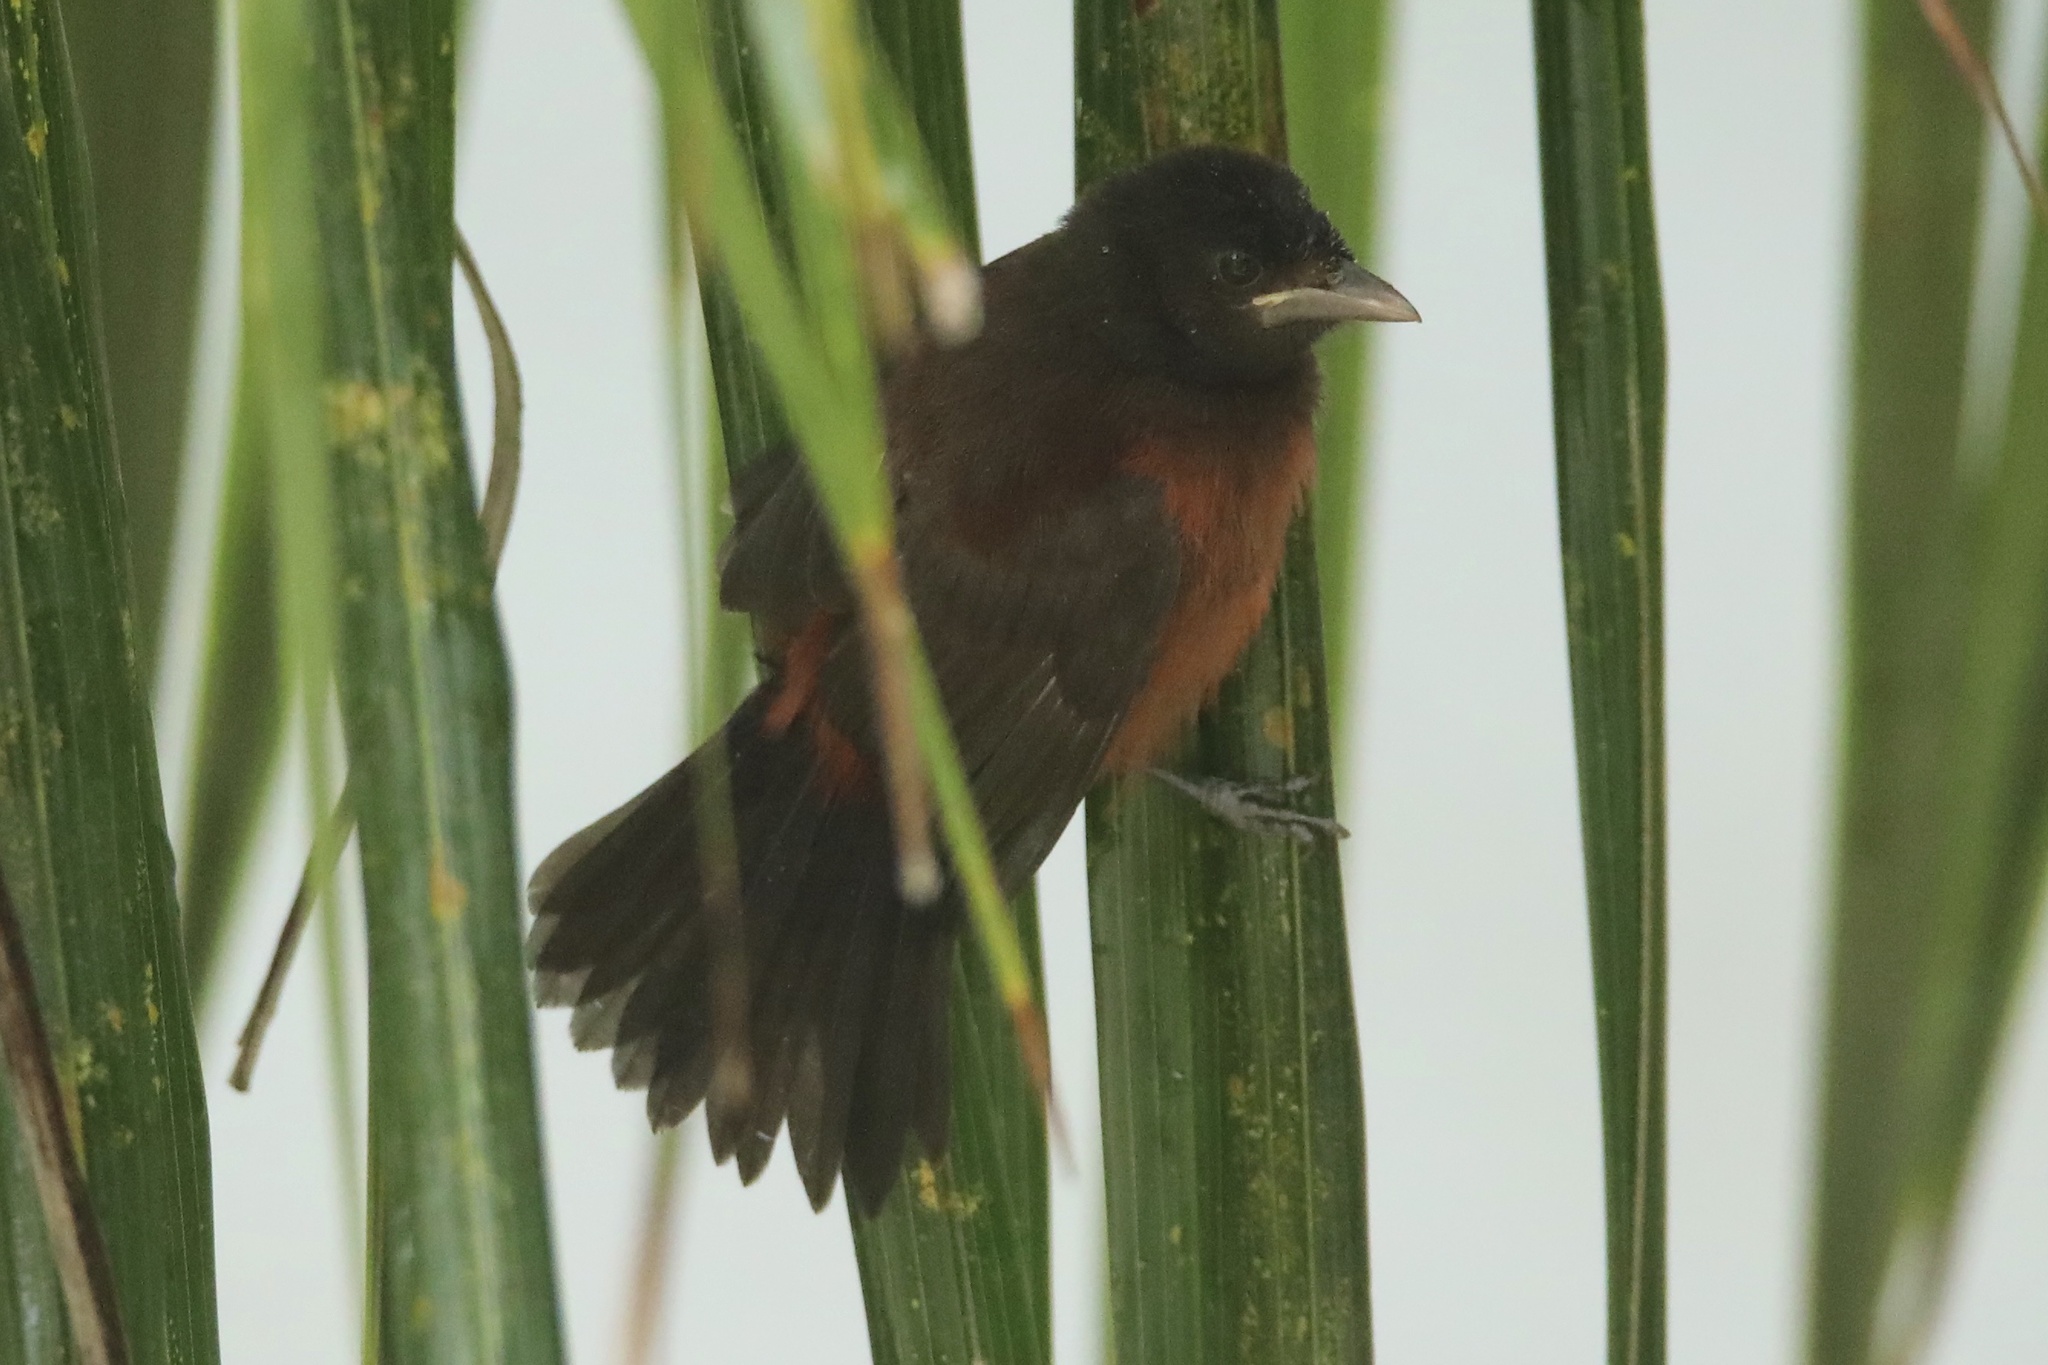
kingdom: Animalia
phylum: Chordata
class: Aves
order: Passeriformes
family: Thraupidae
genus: Ramphocelus
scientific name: Ramphocelus dimidiatus
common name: Crimson-backed tanager
